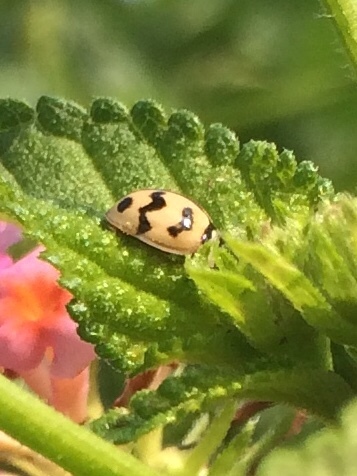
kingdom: Animalia
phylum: Arthropoda
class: Insecta
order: Coleoptera
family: Coccinellidae
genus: Cheilomenes
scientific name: Cheilomenes sexmaculata
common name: Ladybird beetle
